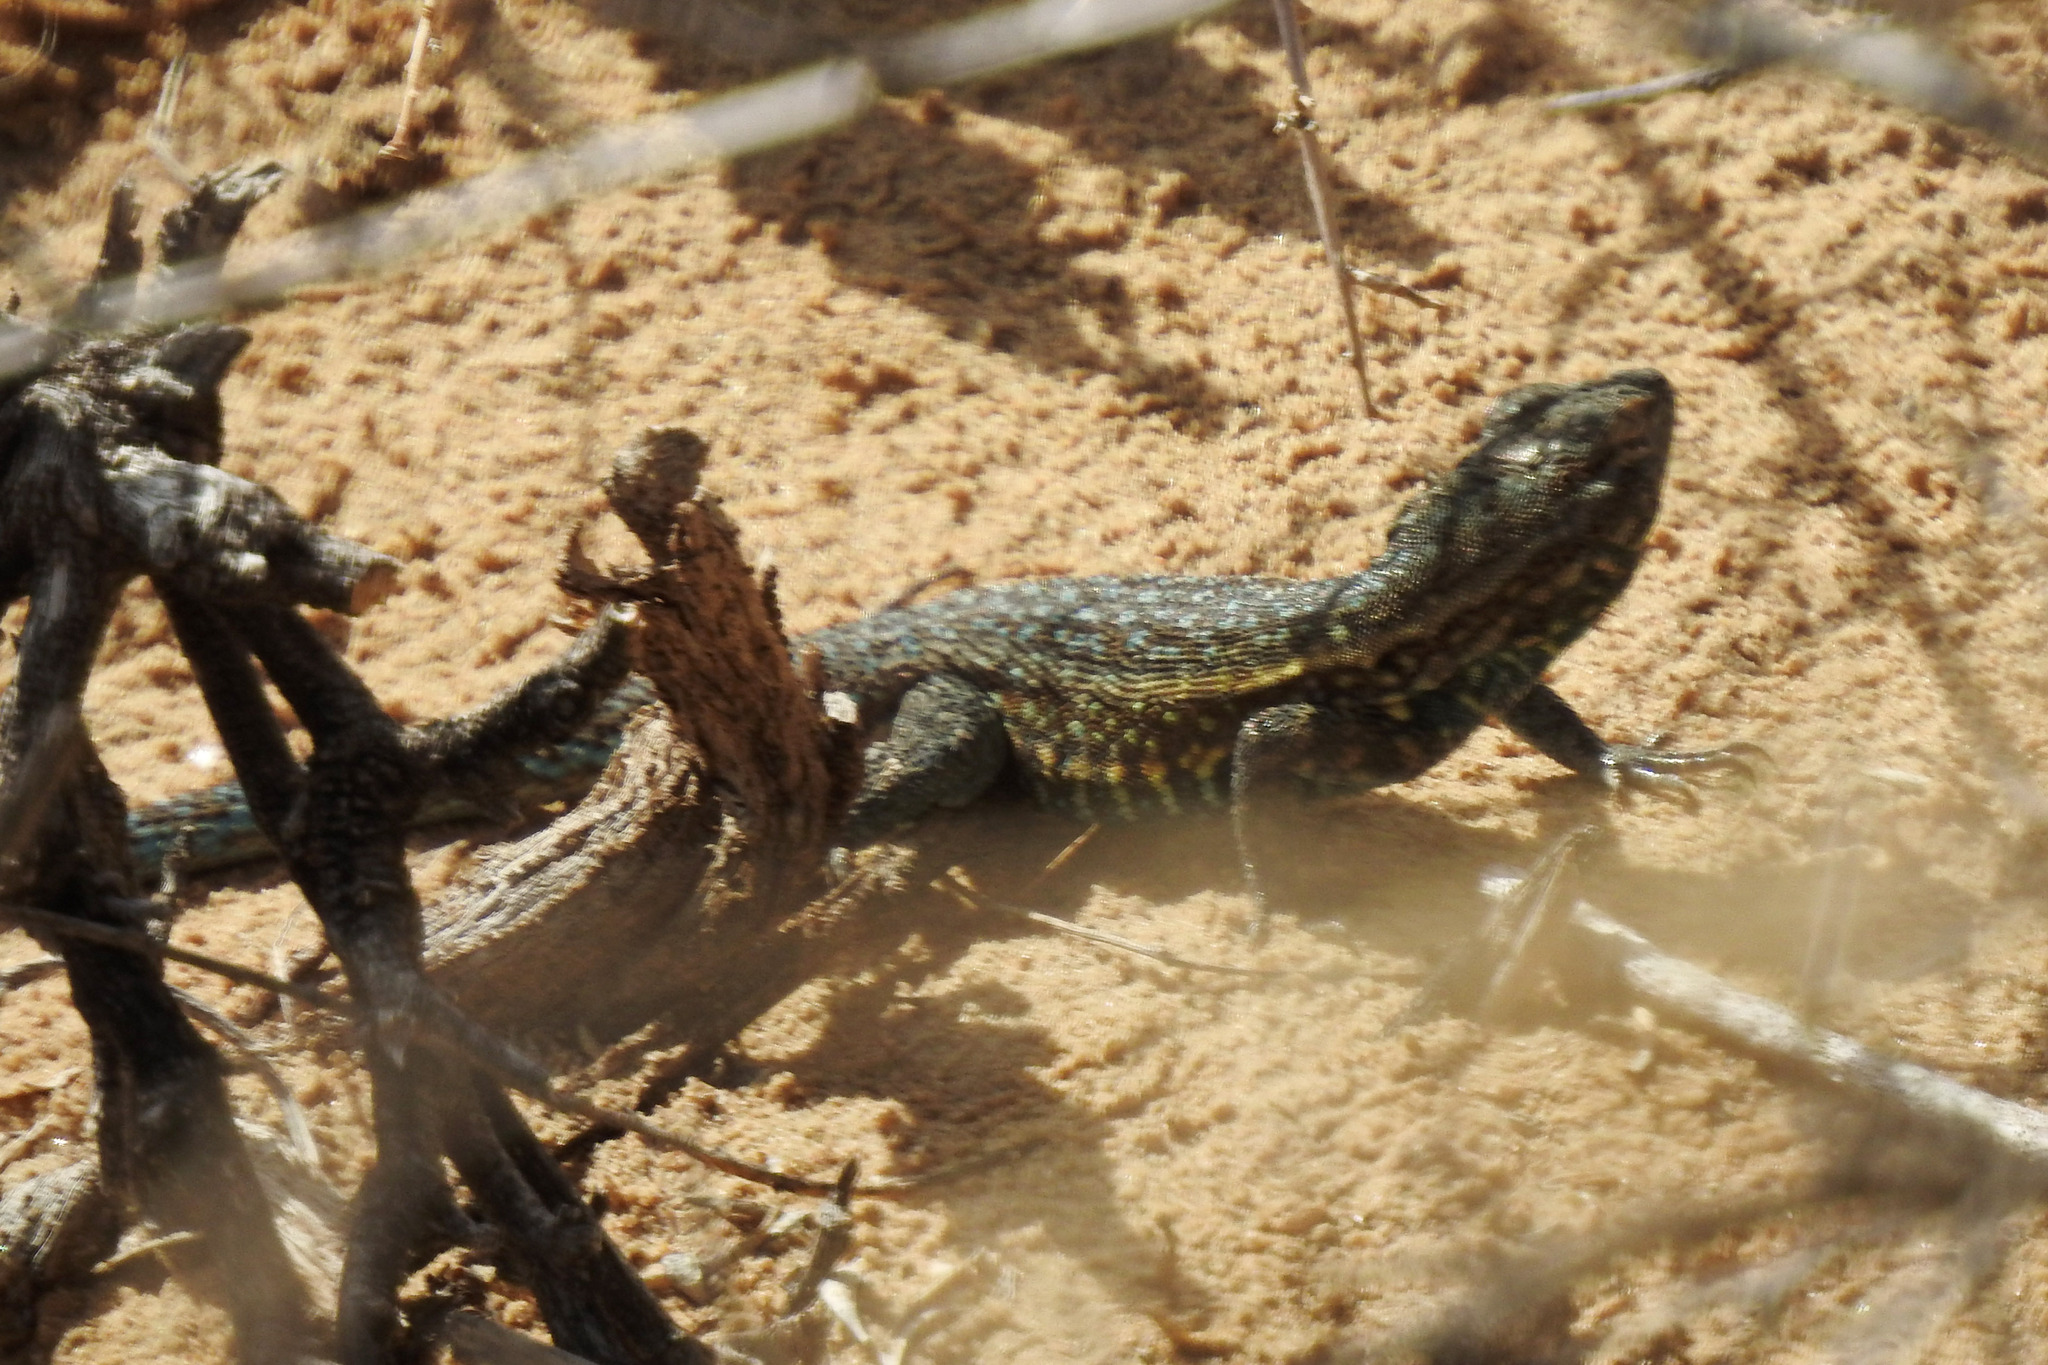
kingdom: Animalia
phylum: Chordata
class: Squamata
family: Phrynosomatidae
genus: Uta
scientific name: Uta stansburiana
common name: Side-blotched lizard
